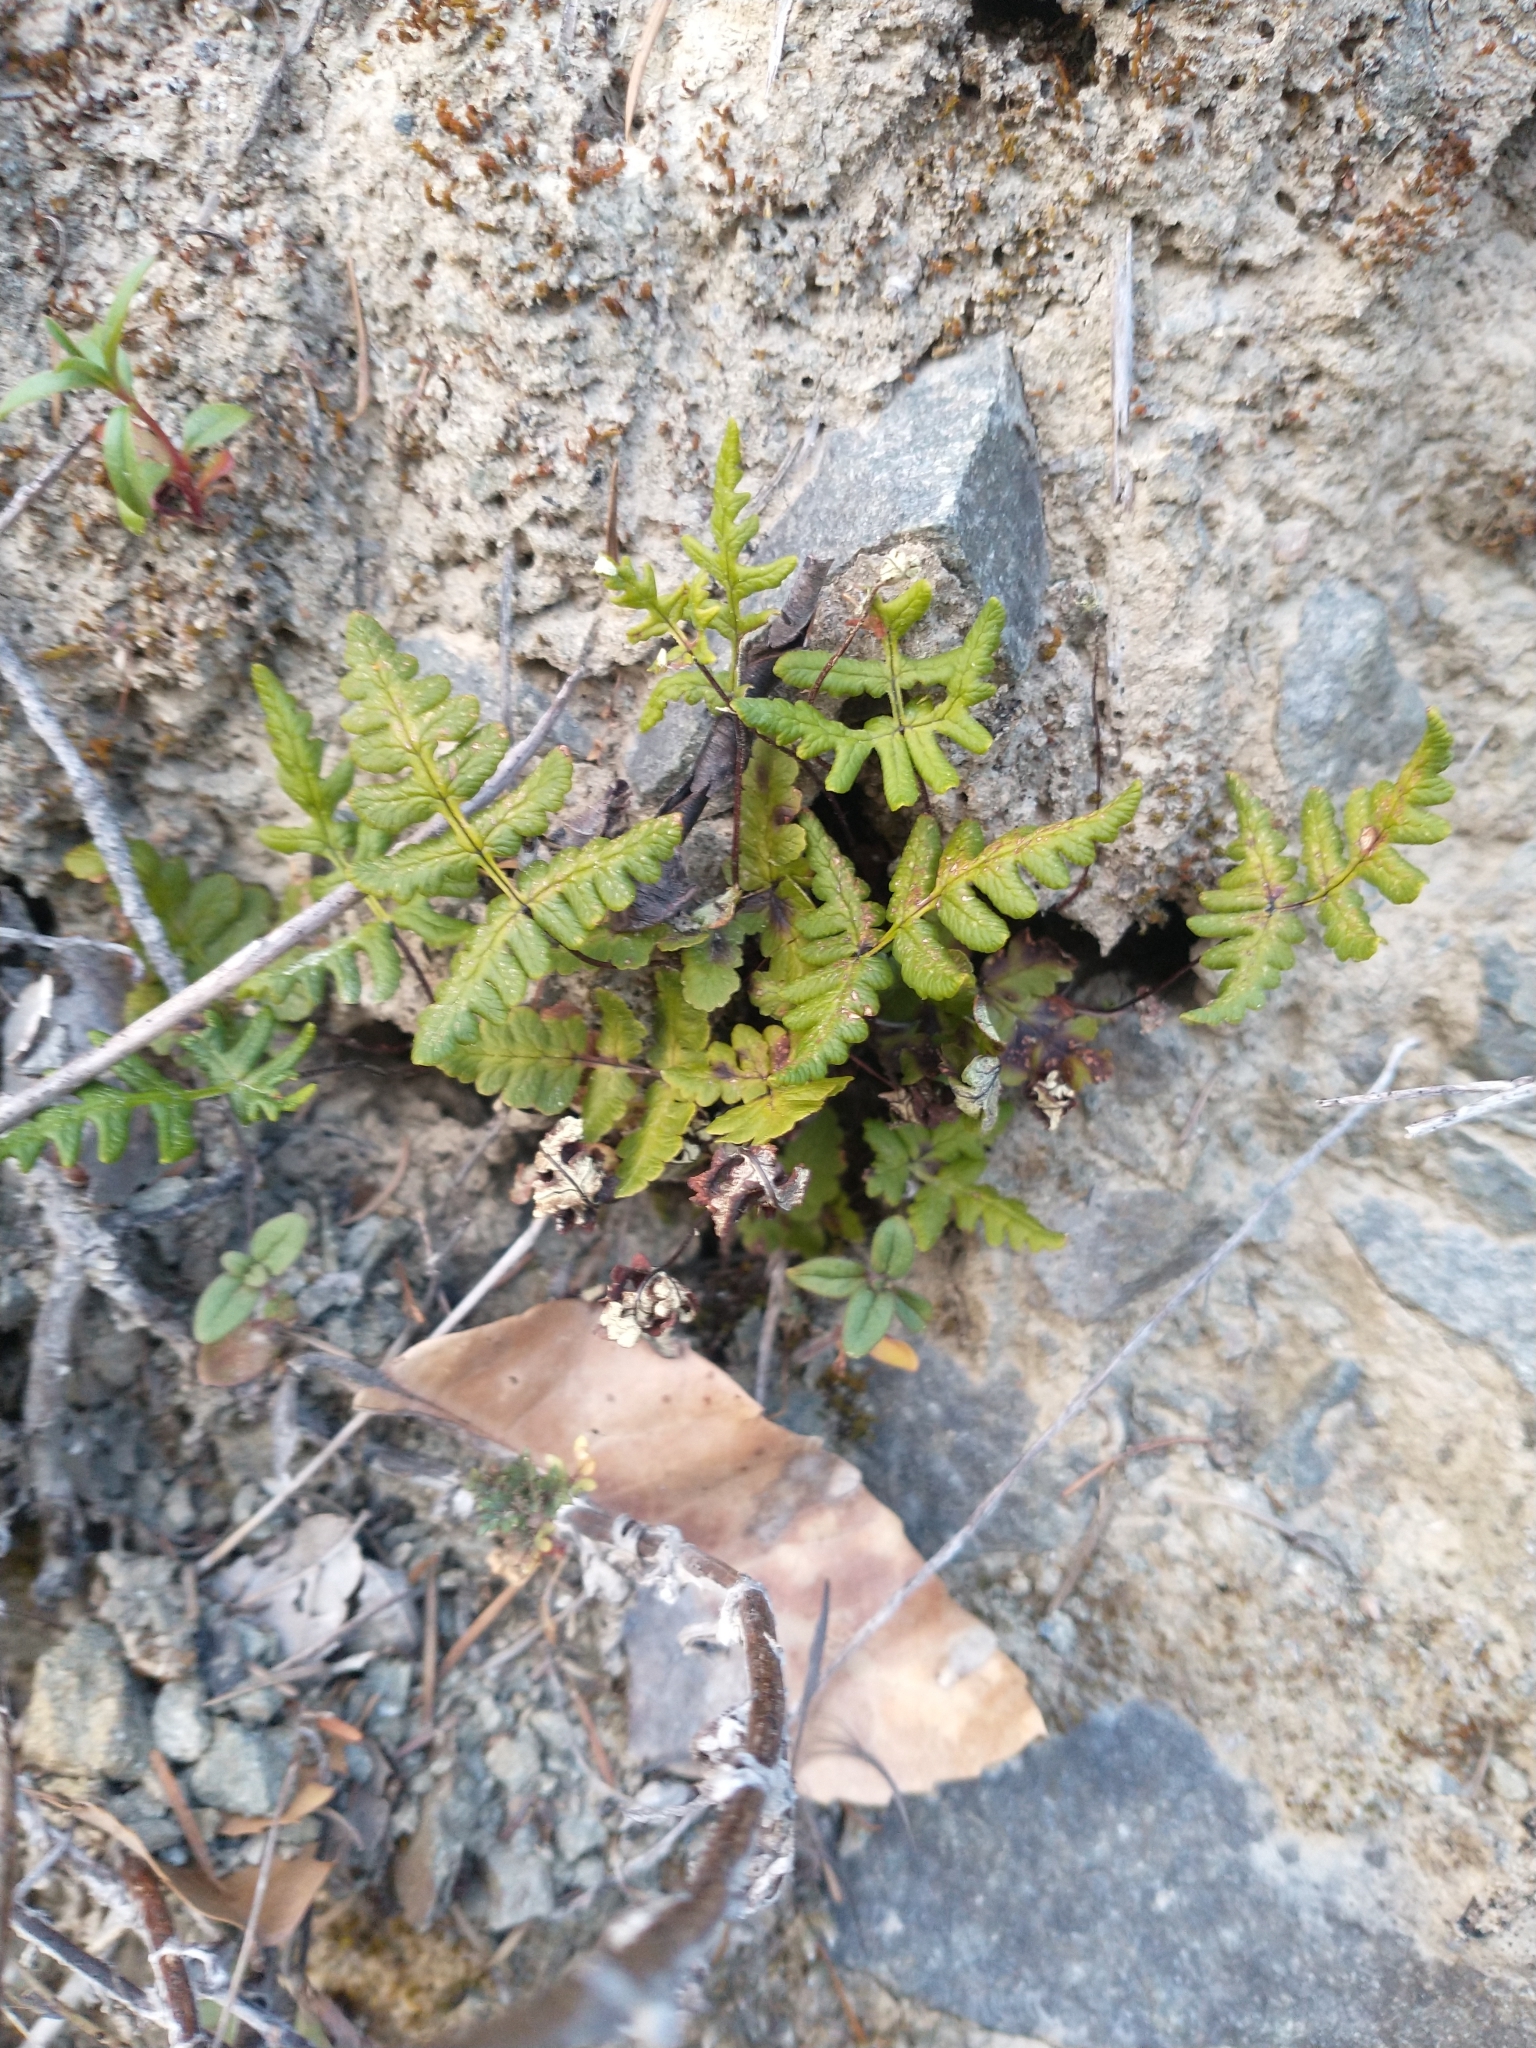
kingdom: Plantae
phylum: Tracheophyta
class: Polypodiopsida
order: Polypodiales
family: Pteridaceae
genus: Pentagramma
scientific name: Pentagramma triangularis
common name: Gold fern
